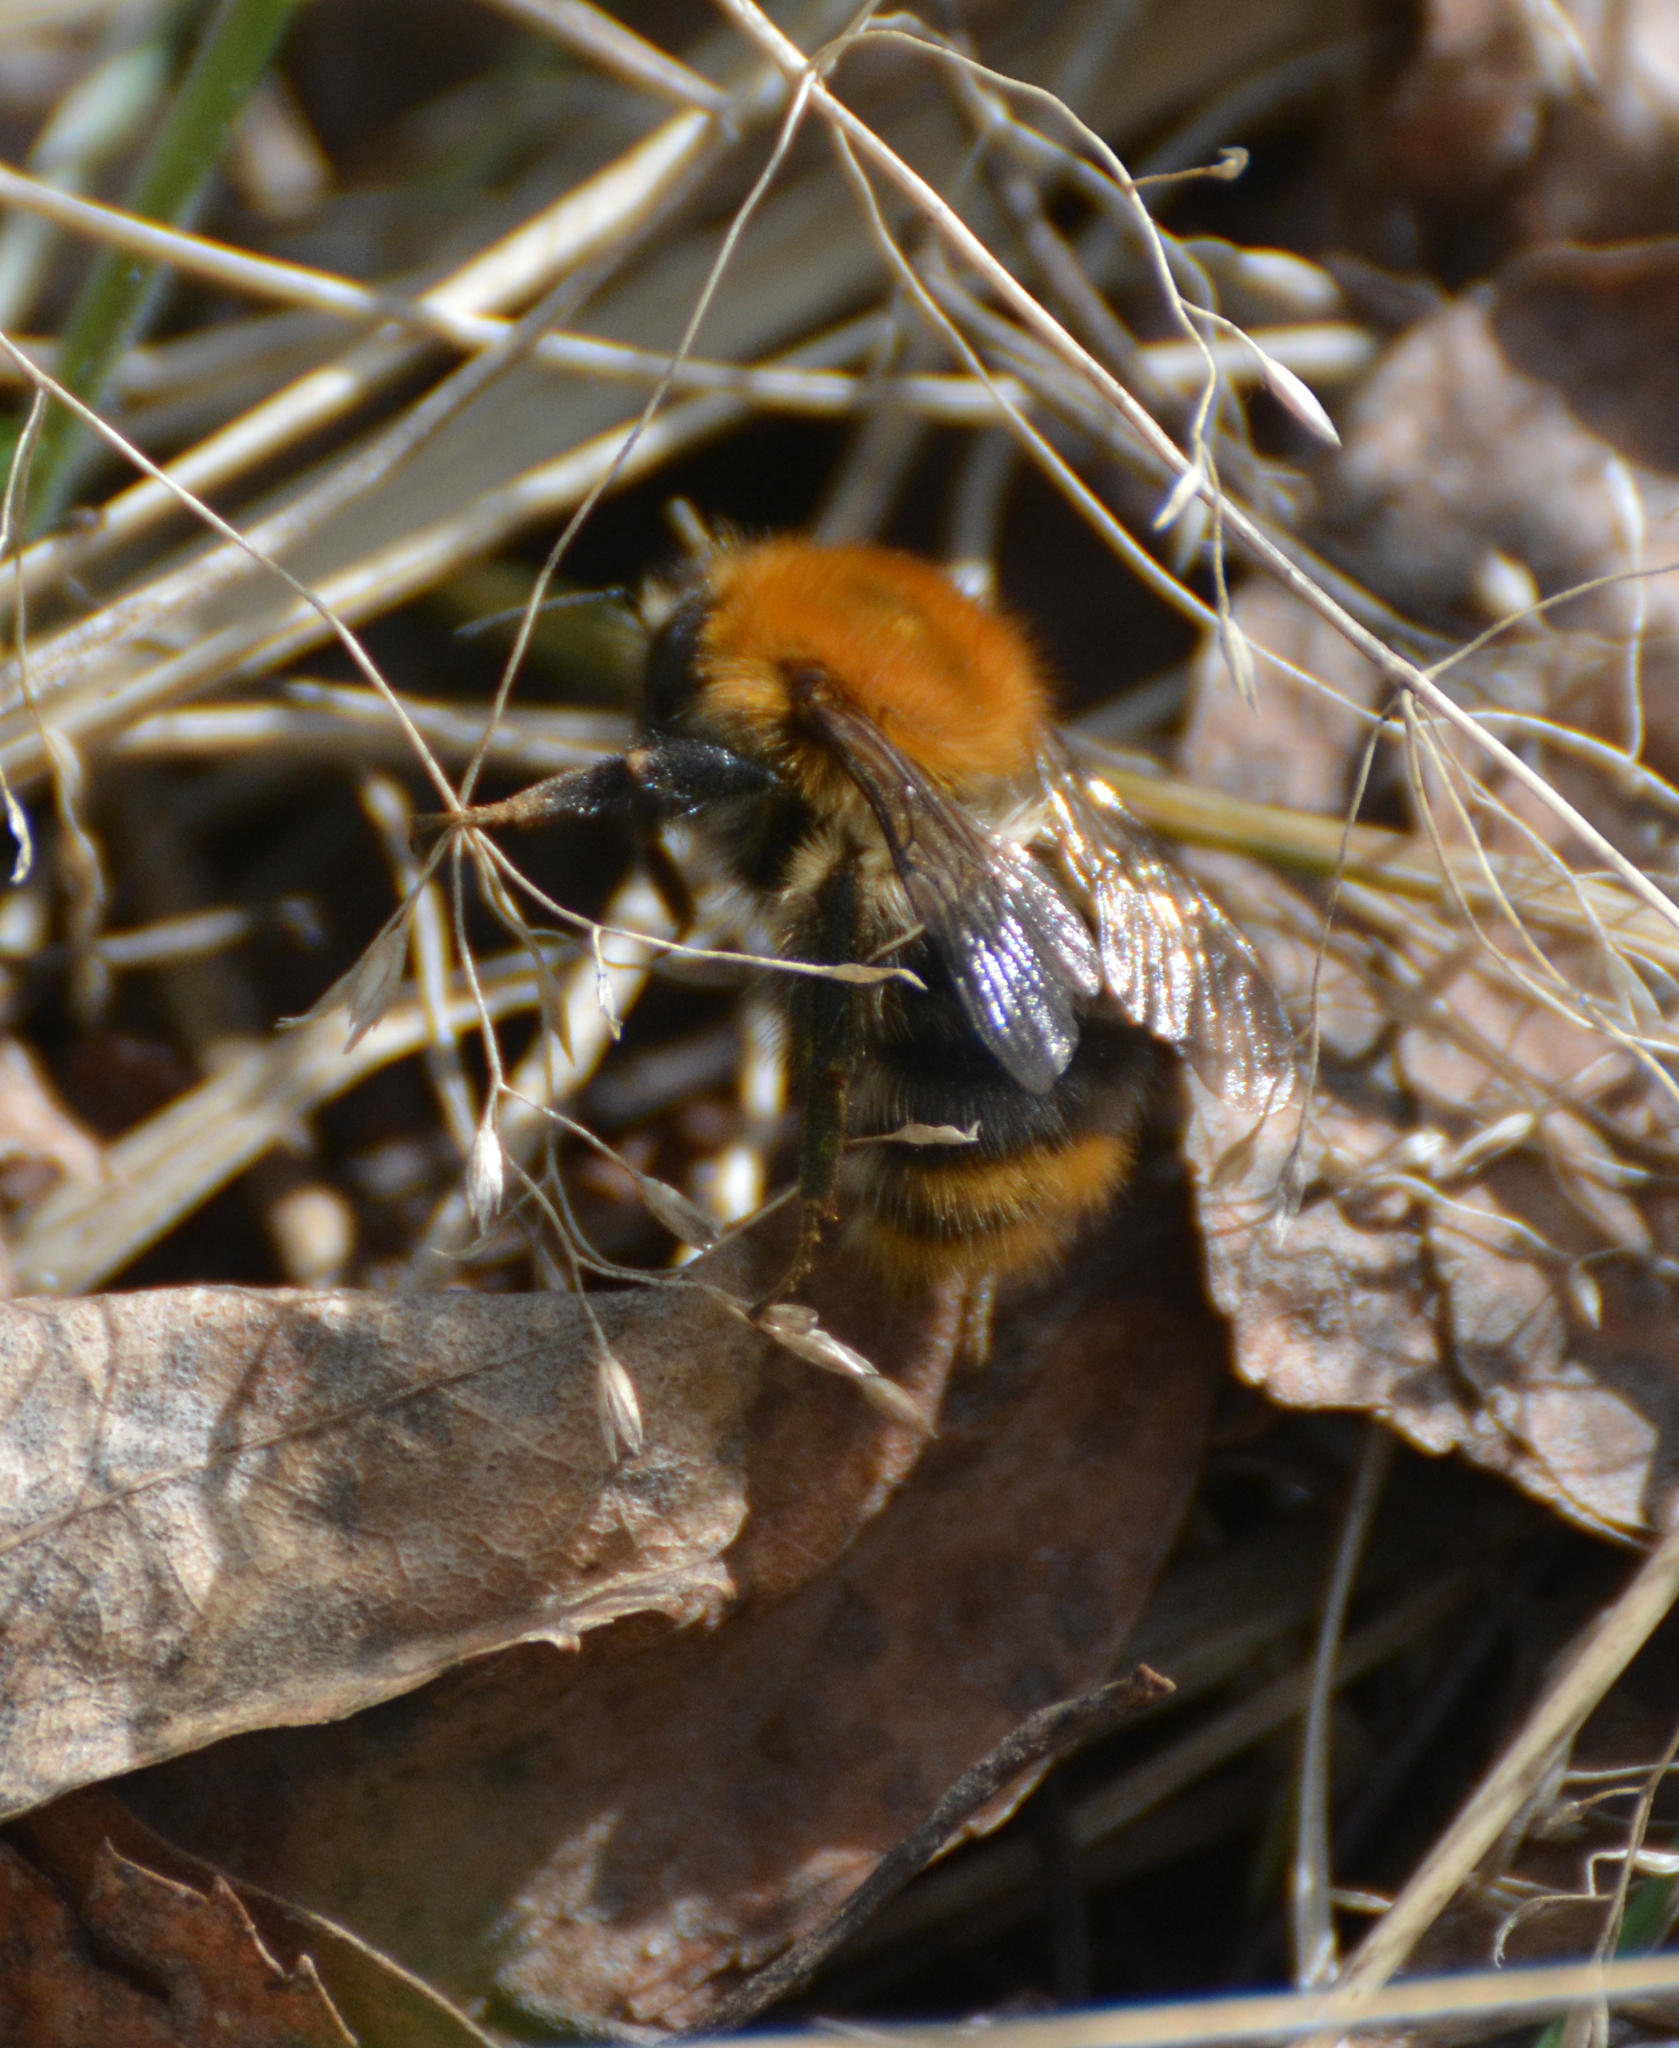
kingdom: Animalia
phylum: Arthropoda
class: Insecta
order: Hymenoptera
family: Apidae
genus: Bombus
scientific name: Bombus pascuorum
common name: Common carder bee
